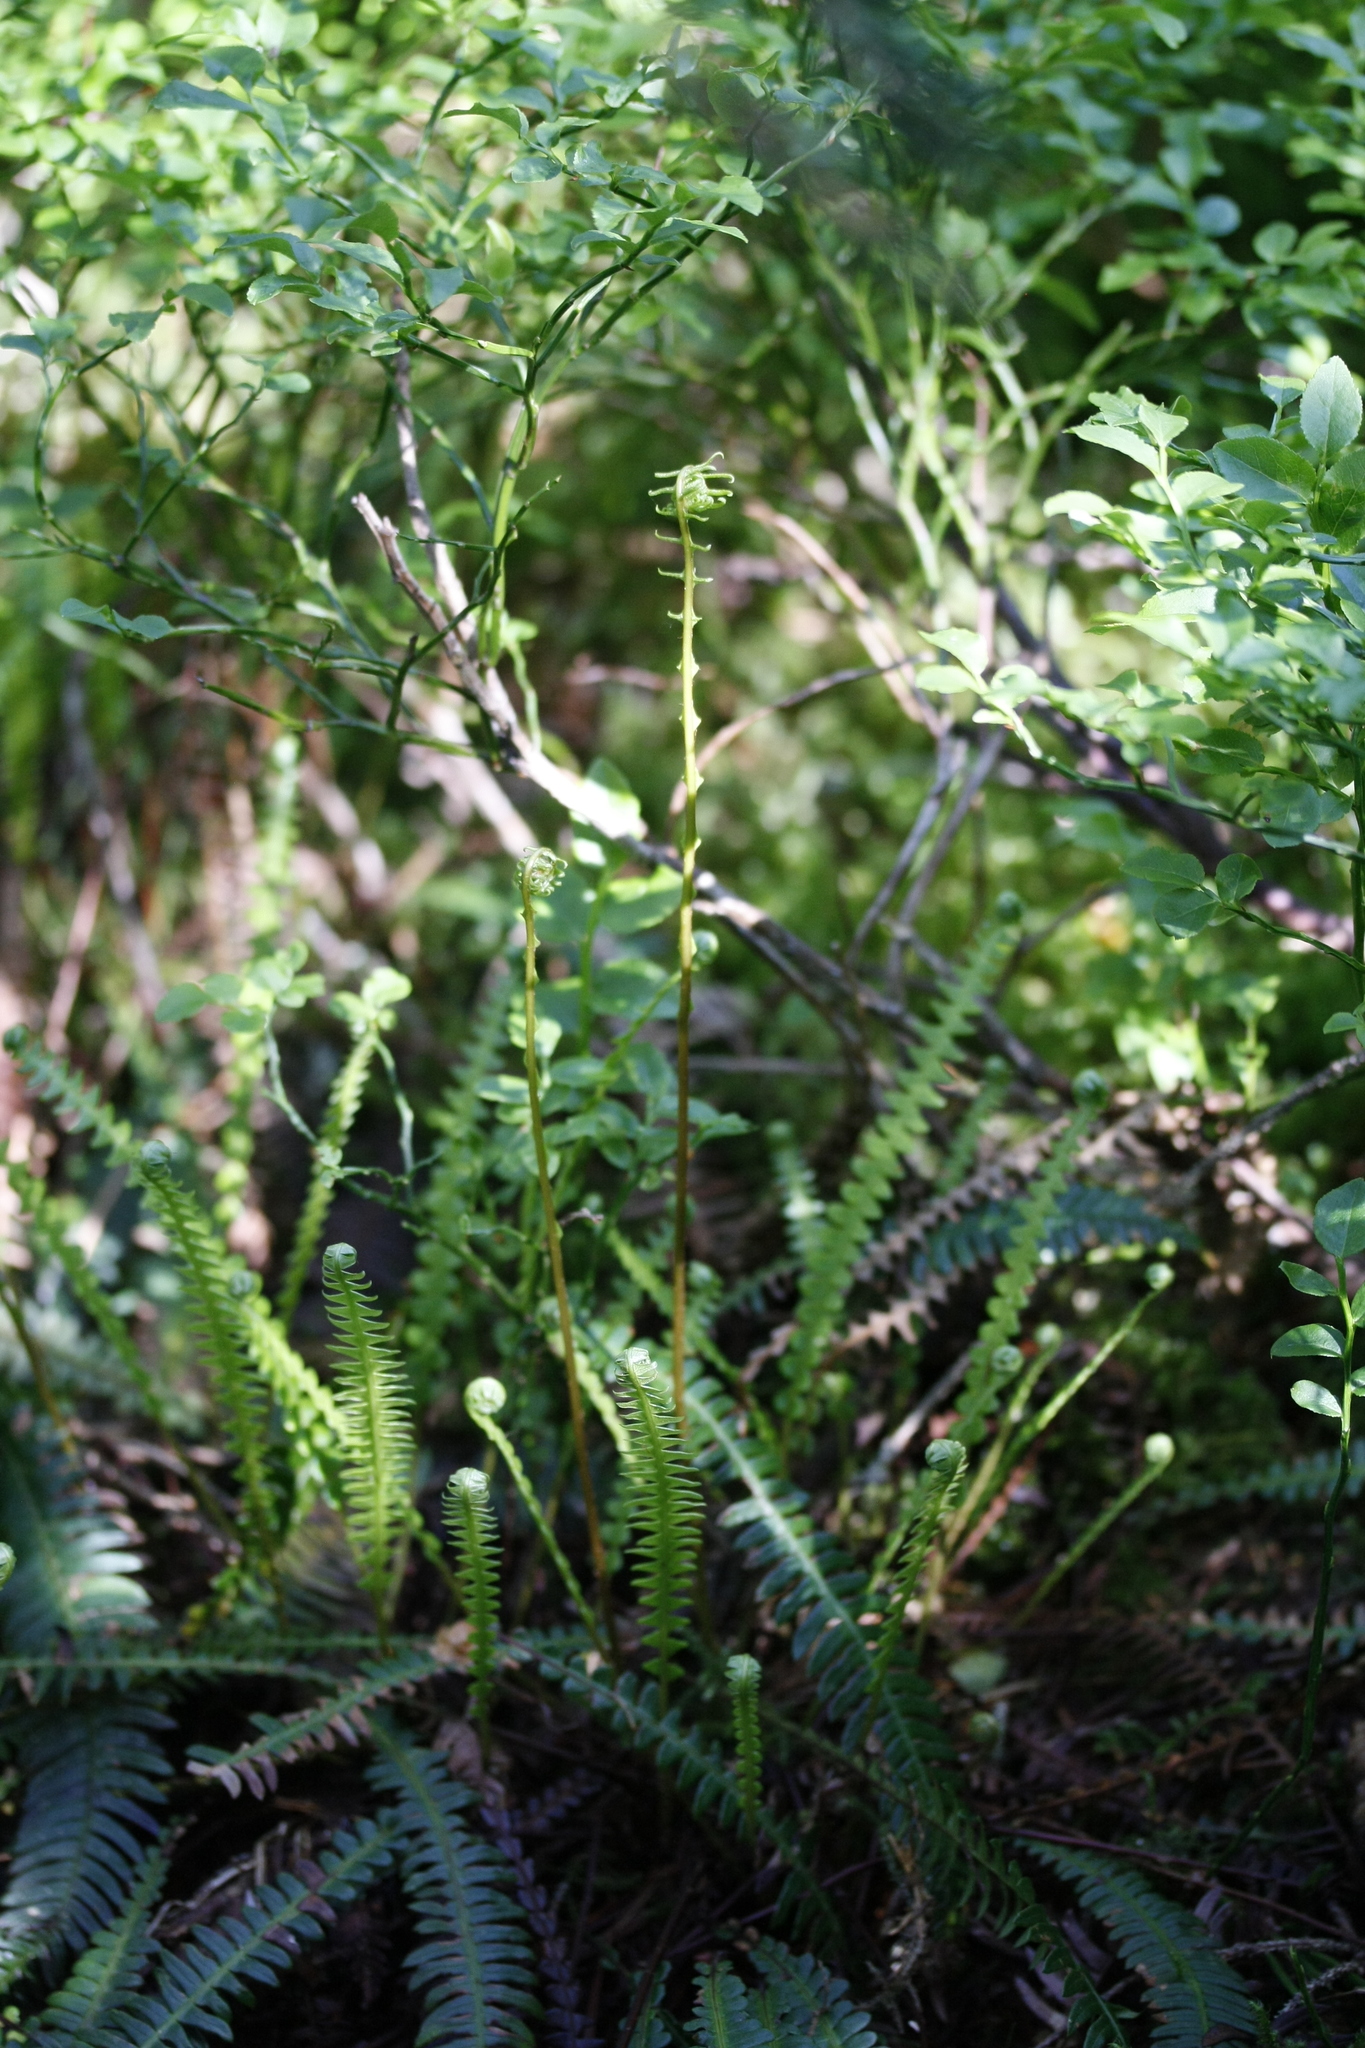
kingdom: Plantae
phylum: Tracheophyta
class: Polypodiopsida
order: Polypodiales
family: Blechnaceae
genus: Struthiopteris
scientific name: Struthiopteris spicant
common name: Deer fern
